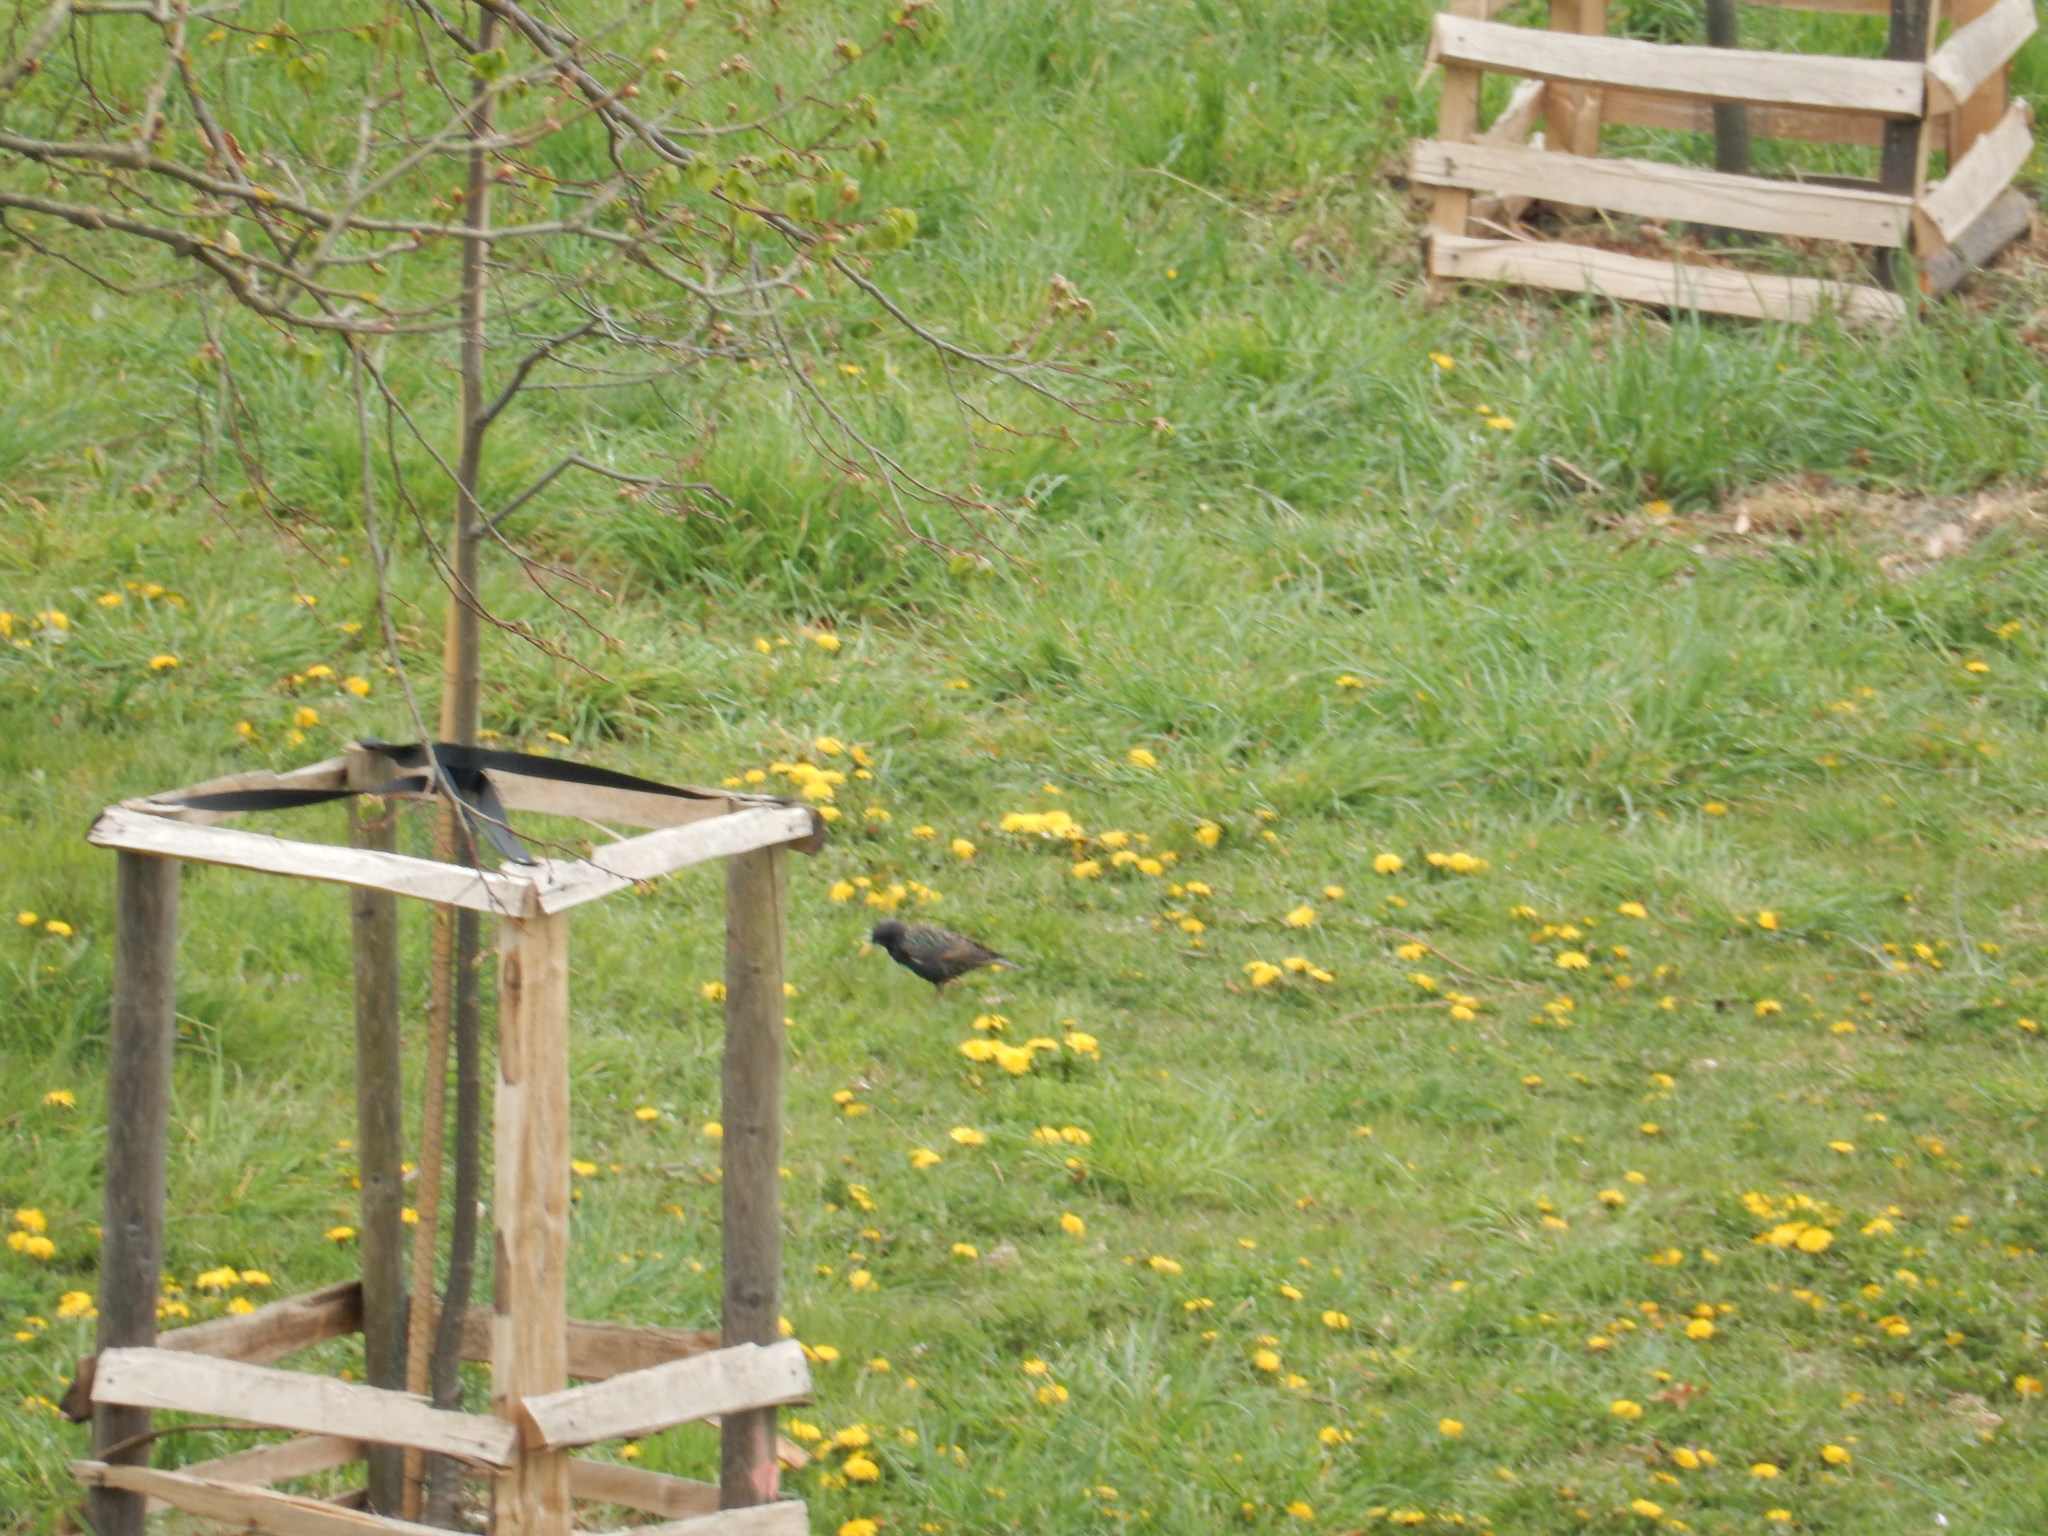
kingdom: Animalia
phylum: Chordata
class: Aves
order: Passeriformes
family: Sturnidae
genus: Sturnus
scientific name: Sturnus vulgaris
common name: Common starling
